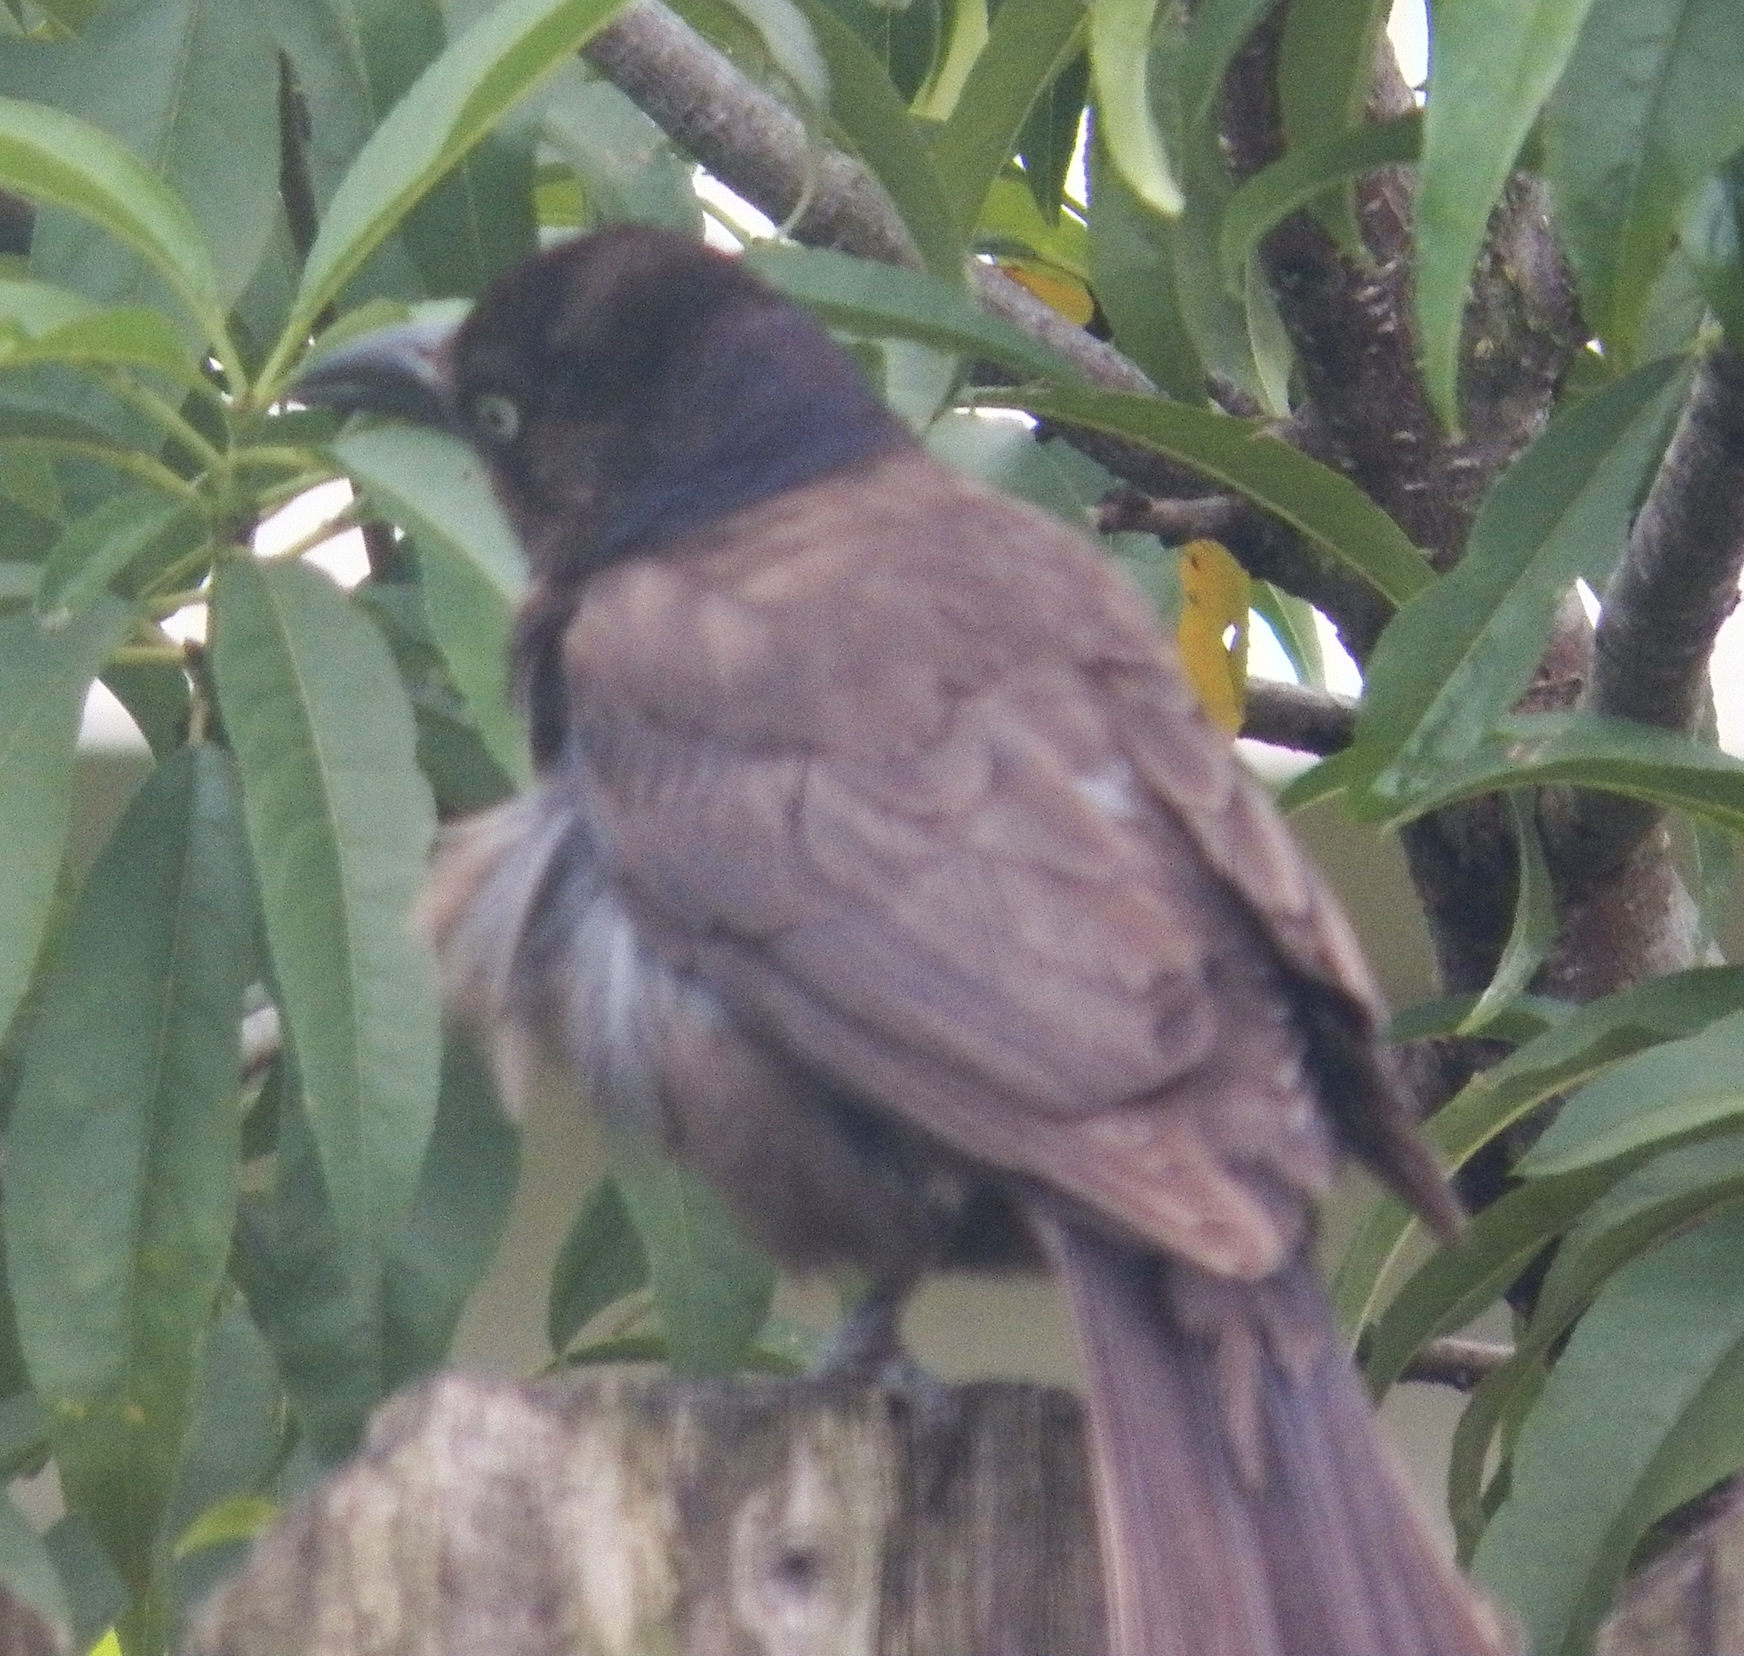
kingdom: Animalia
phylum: Chordata
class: Aves
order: Passeriformes
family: Icteridae
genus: Quiscalus
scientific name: Quiscalus quiscula
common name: Common grackle
